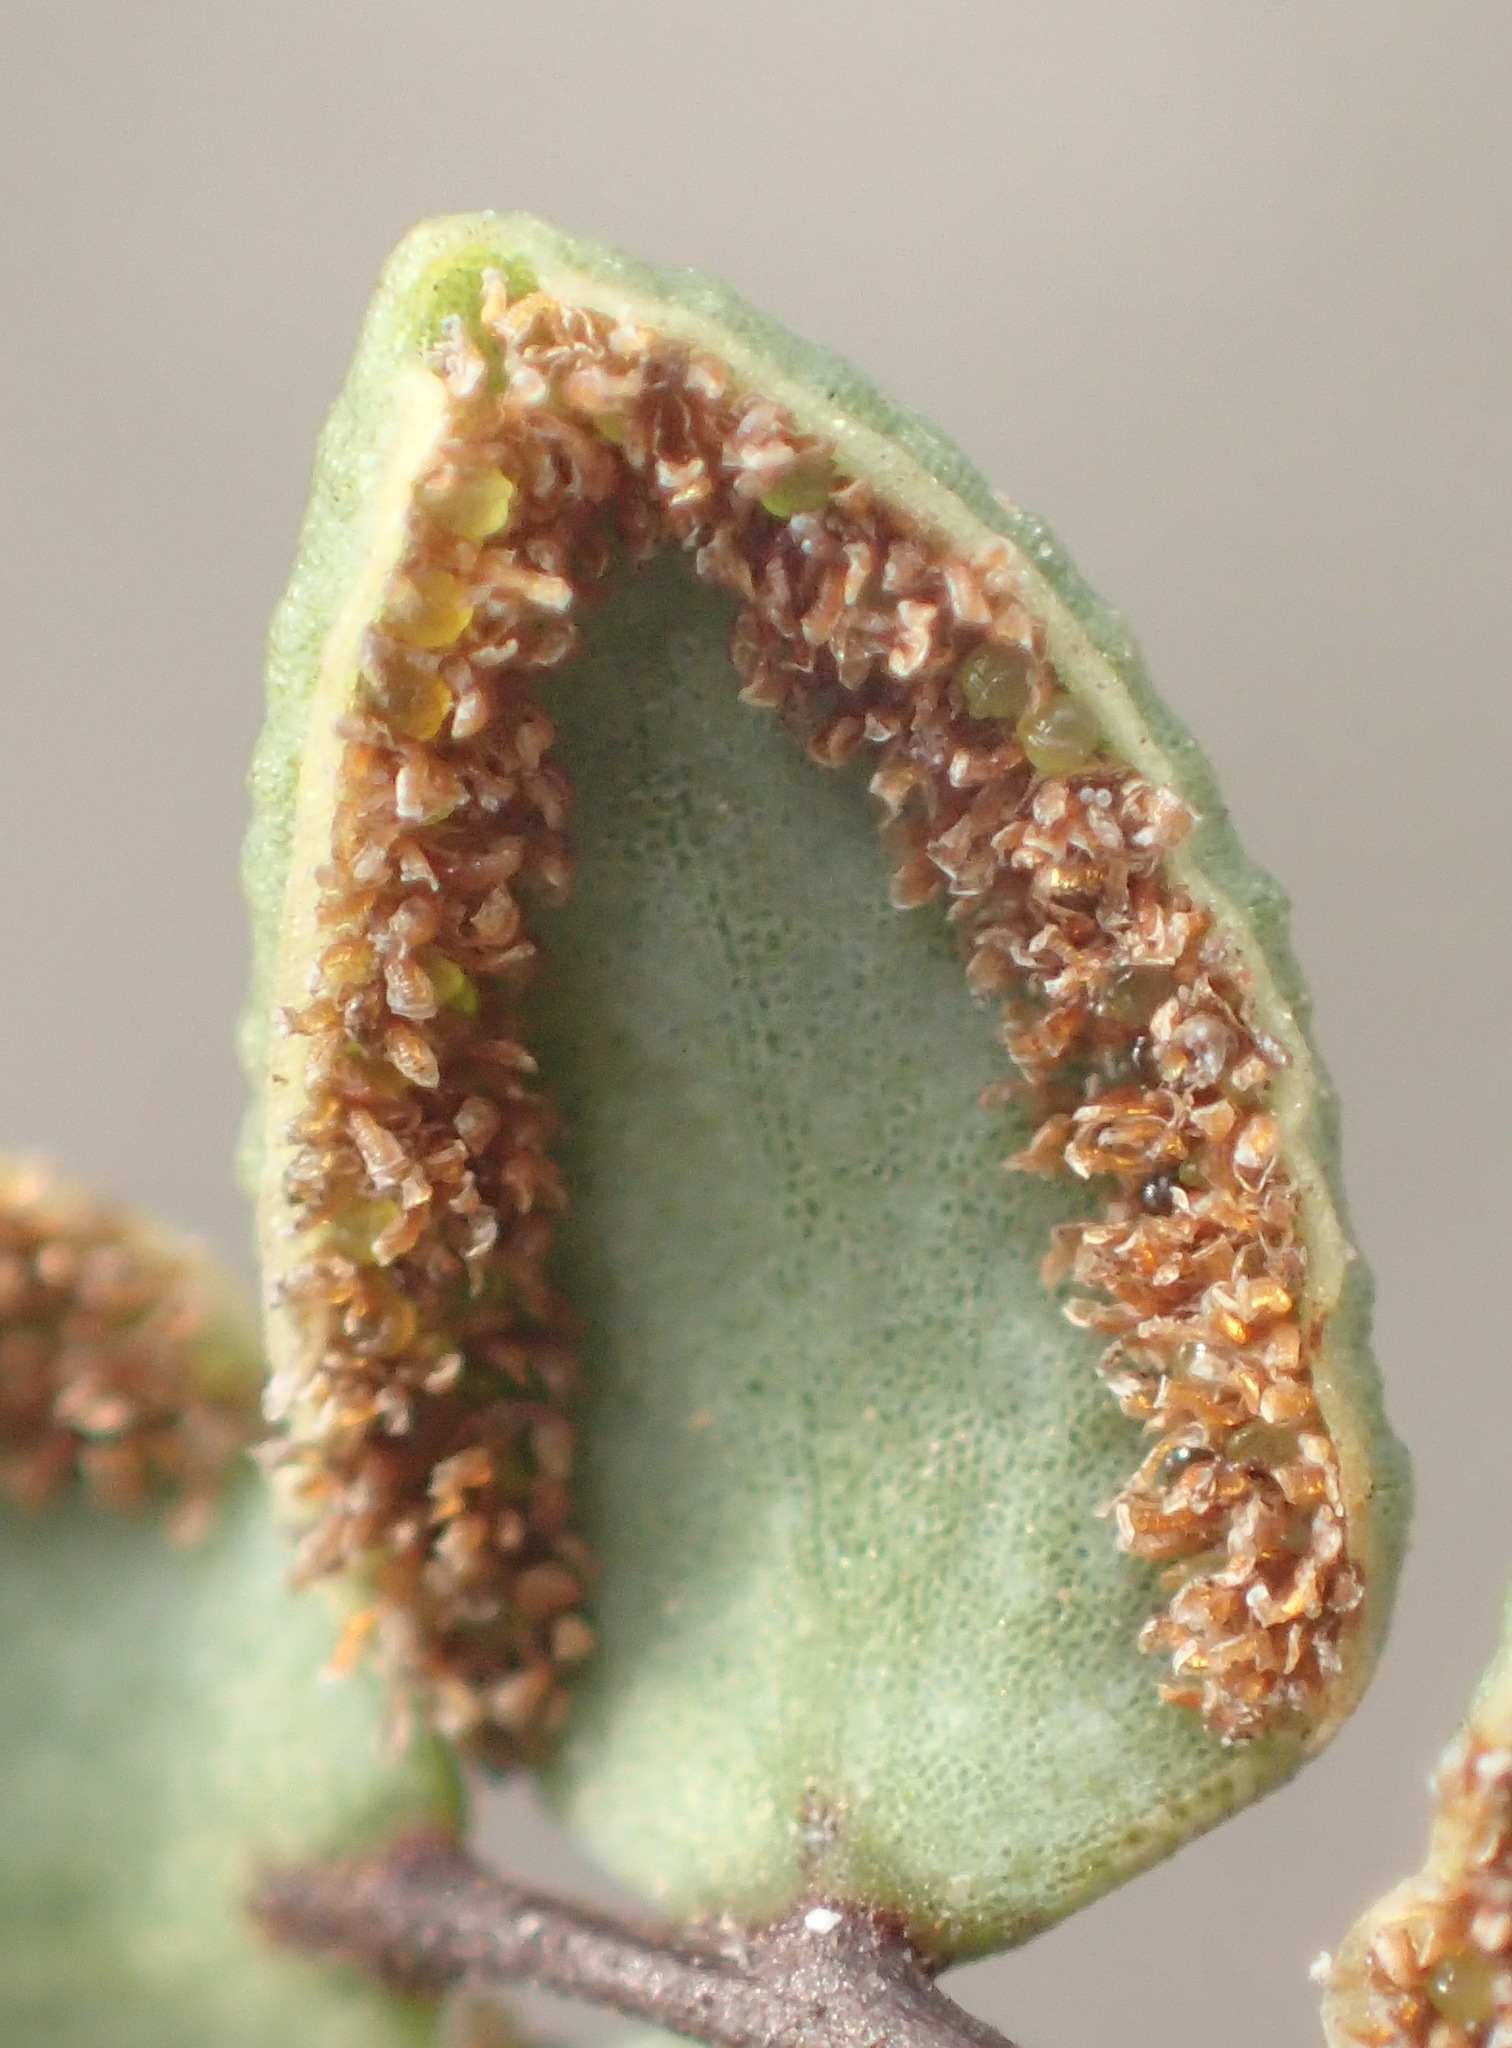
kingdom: Plantae
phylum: Tracheophyta
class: Polypodiopsida
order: Polypodiales
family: Pteridaceae
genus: Pellaea
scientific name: Pellaea leucomelas
